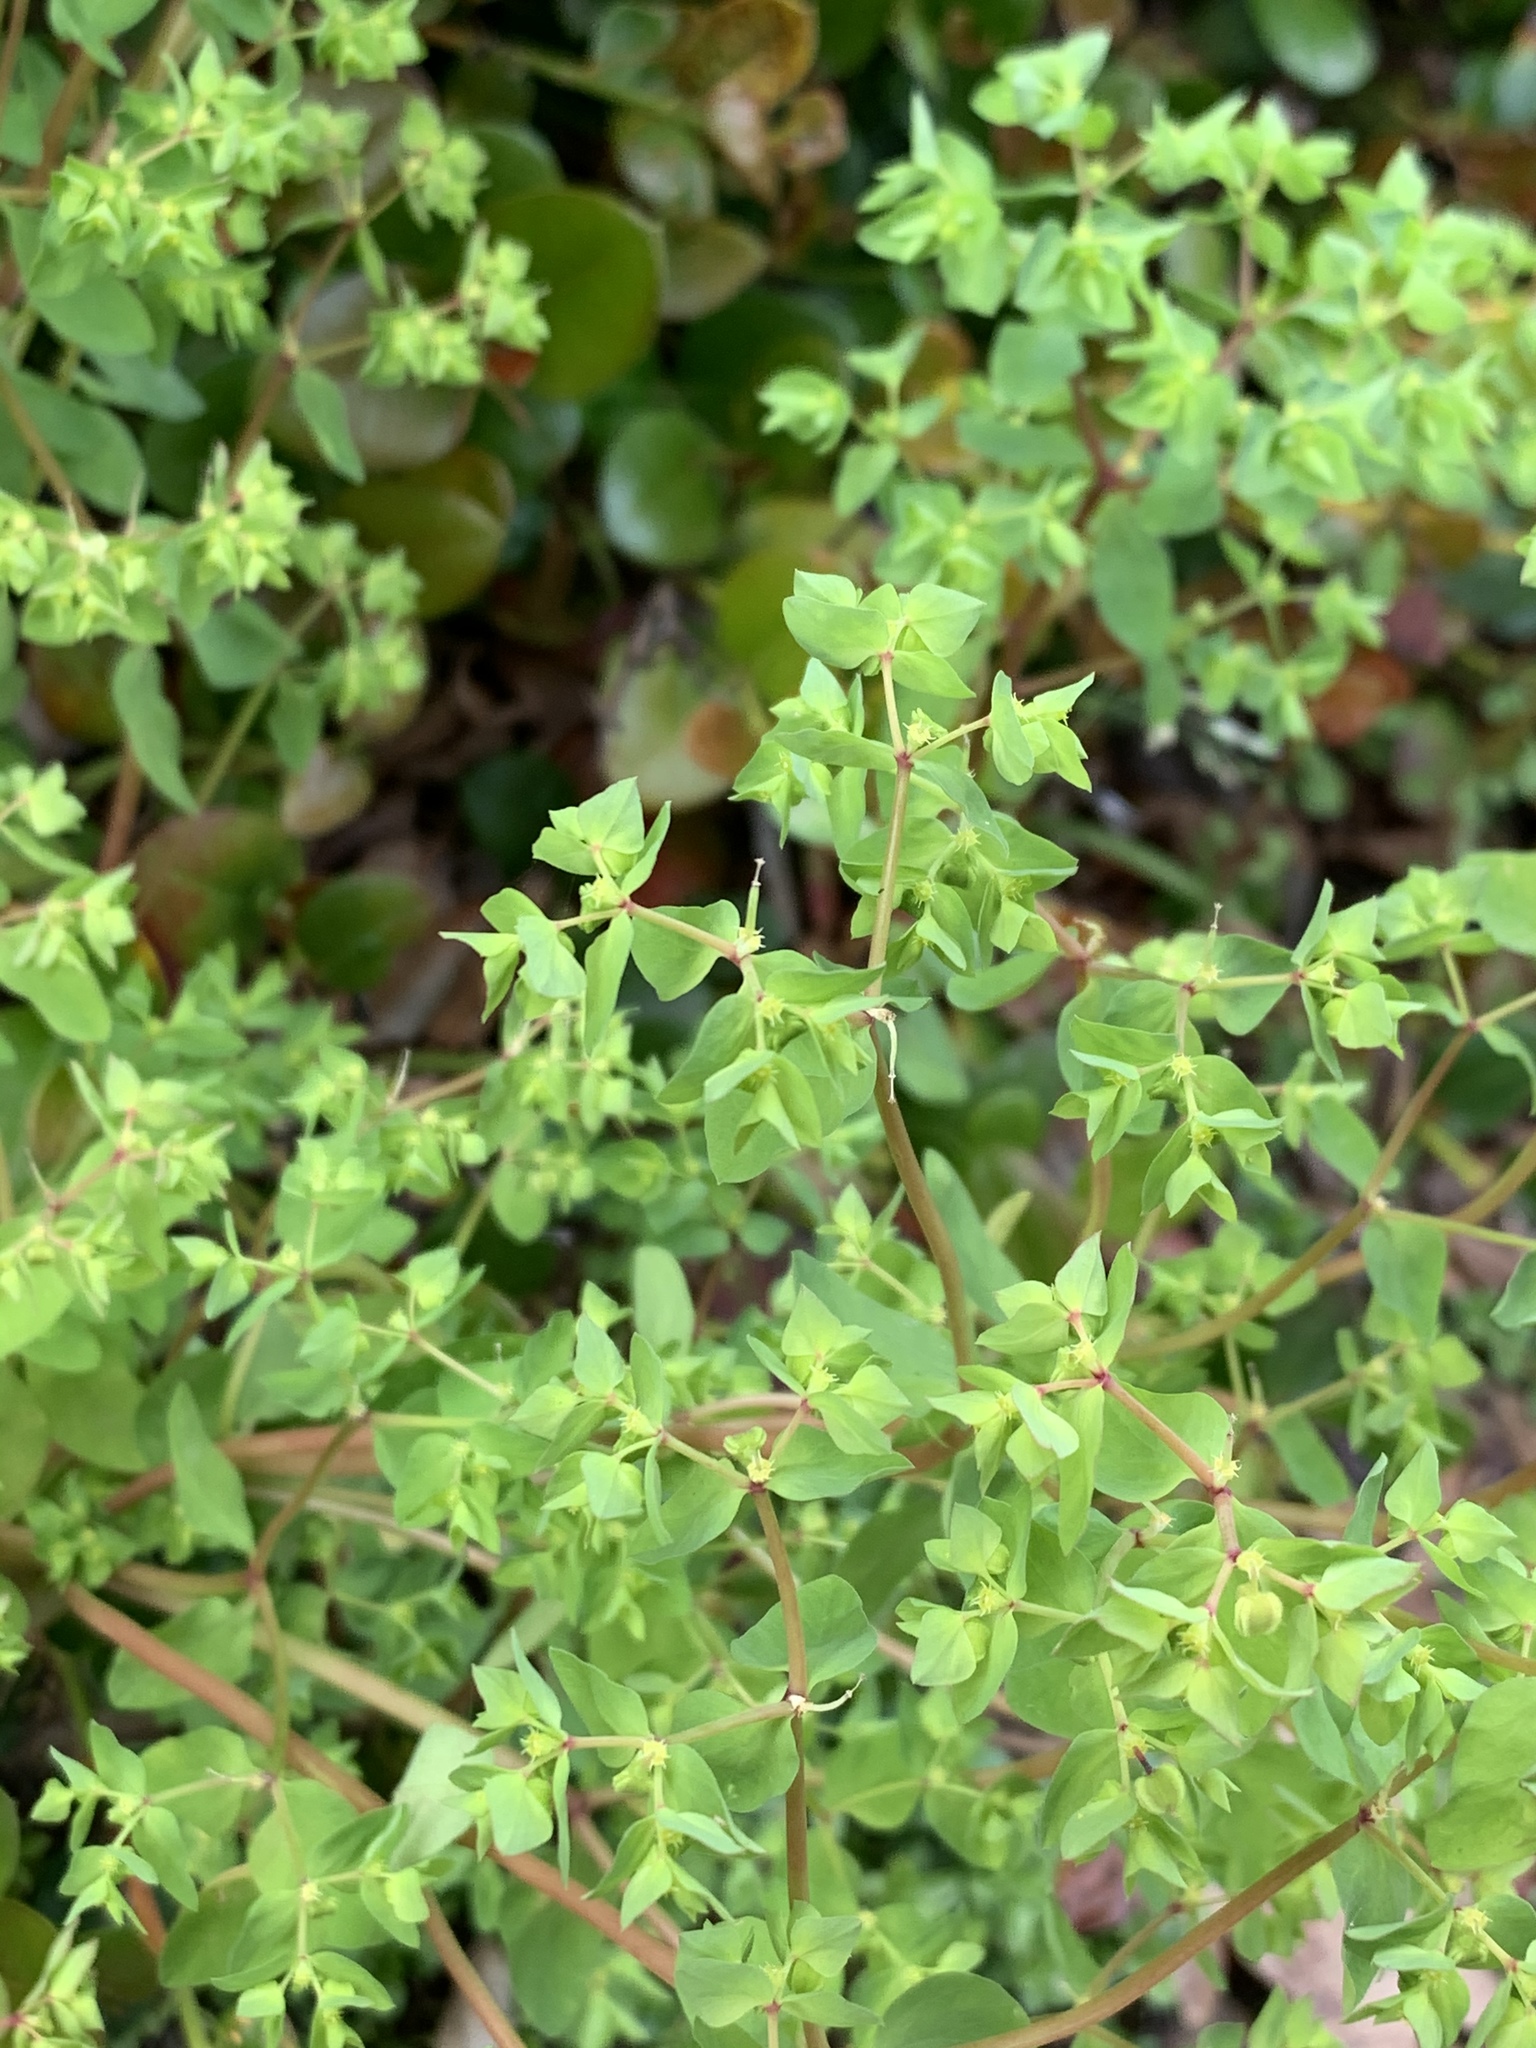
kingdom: Plantae
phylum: Tracheophyta
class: Magnoliopsida
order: Malpighiales
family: Euphorbiaceae
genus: Euphorbia
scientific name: Euphorbia peplus
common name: Petty spurge
